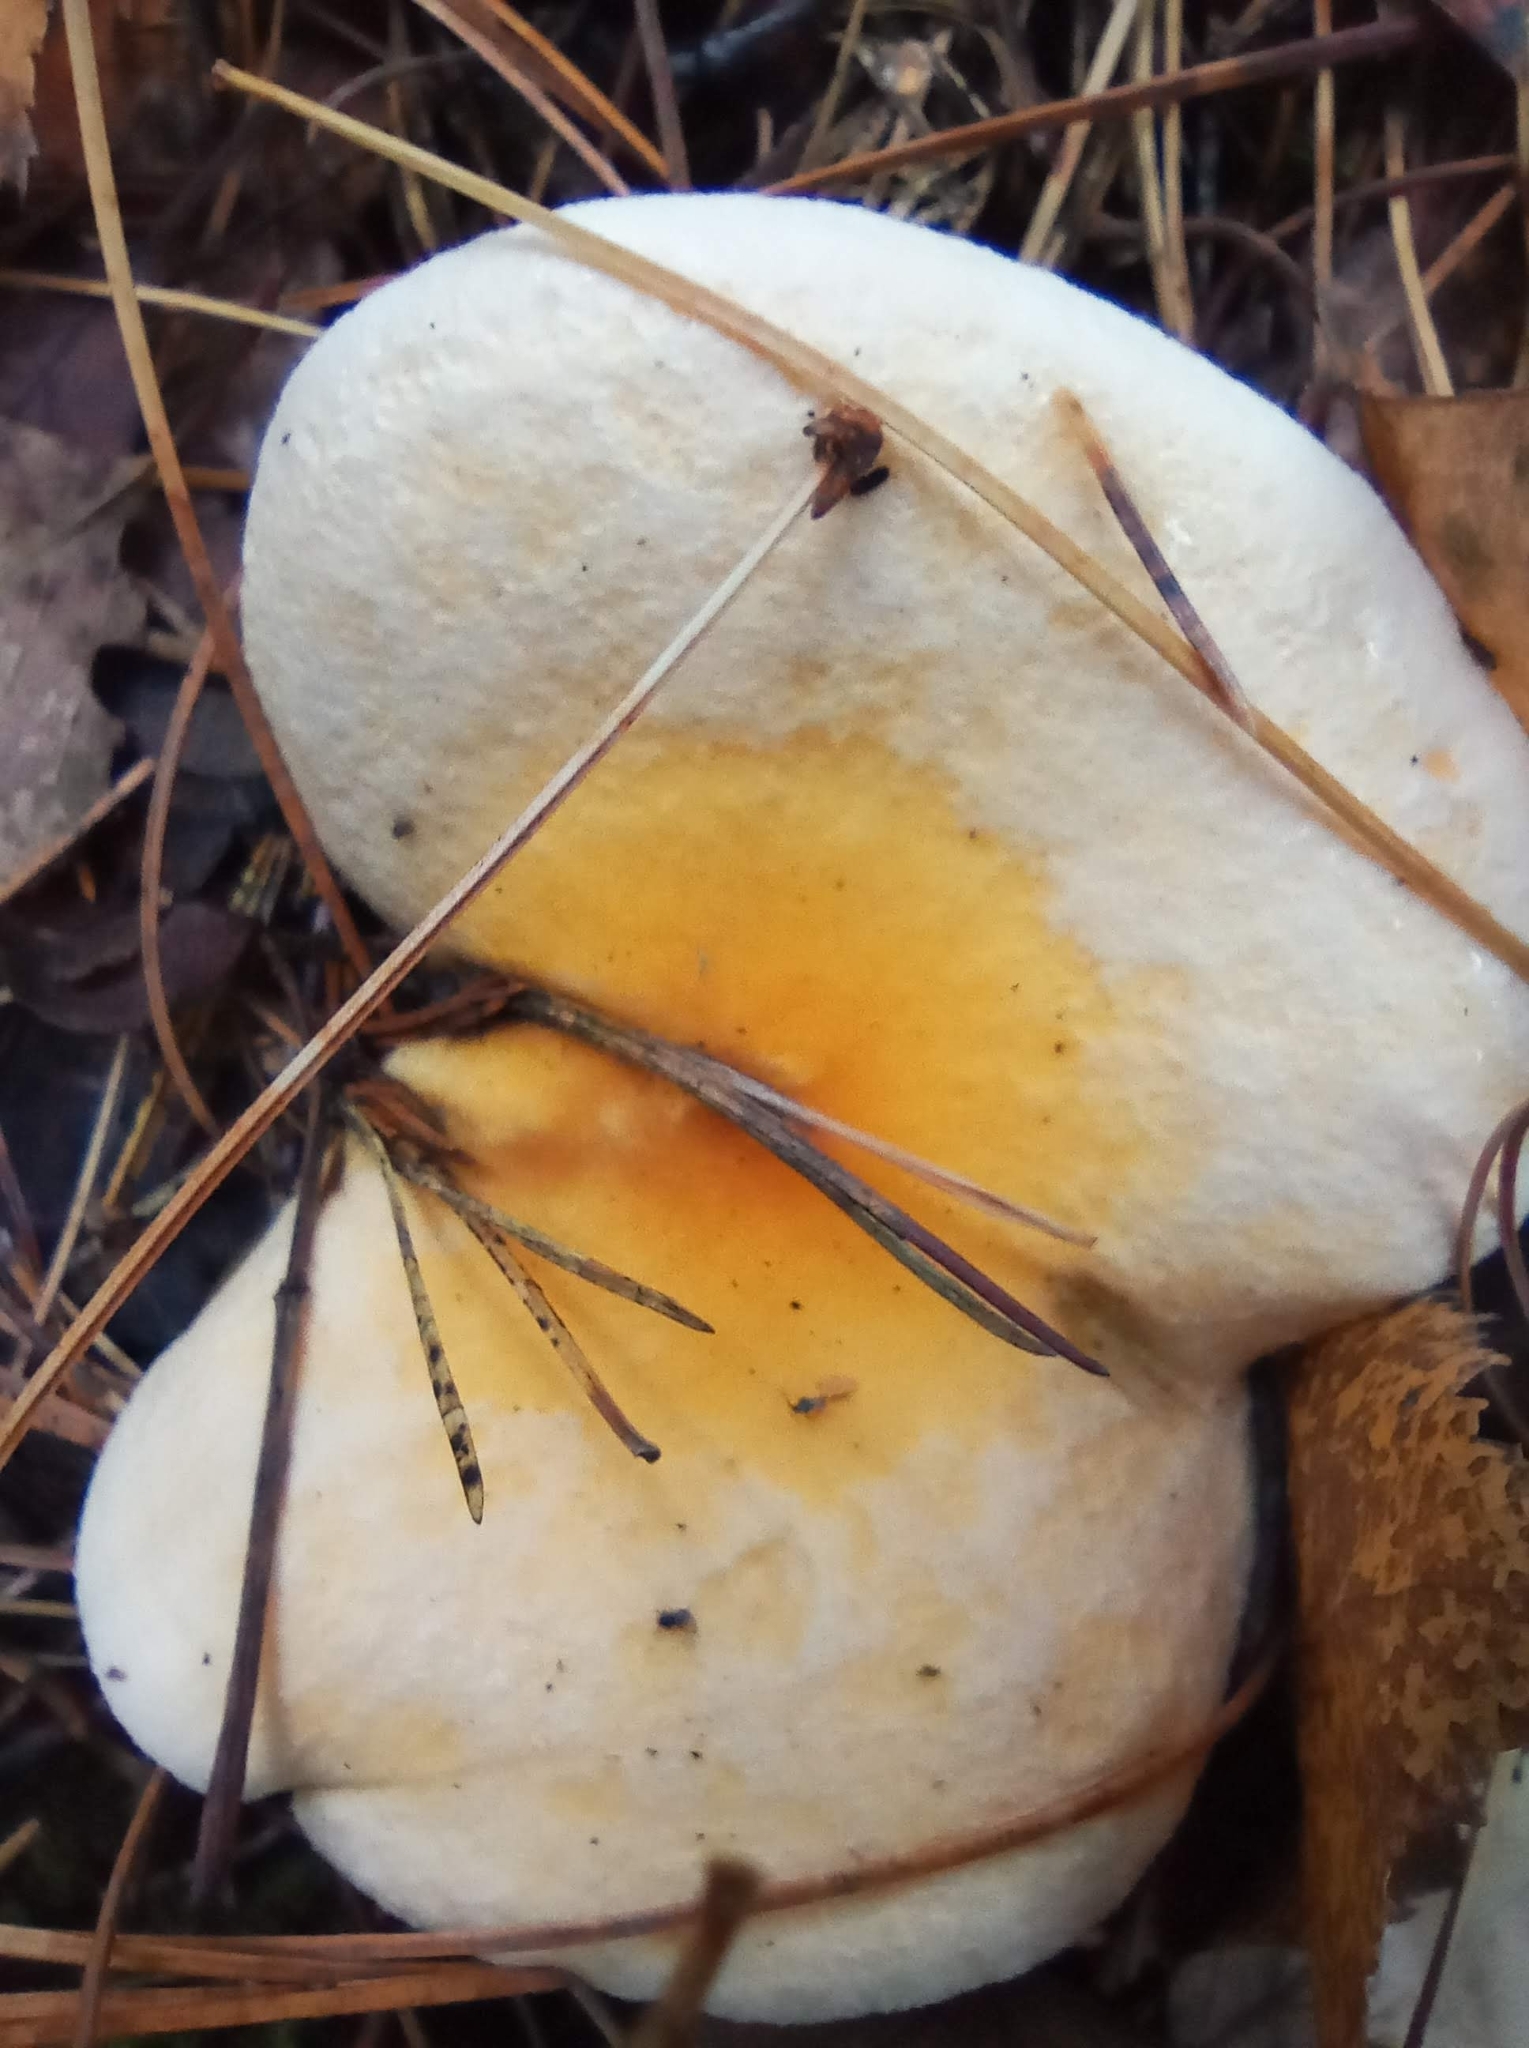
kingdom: Fungi
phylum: Basidiomycota
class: Agaricomycetes
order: Boletales
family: Hygrophoropsidaceae
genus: Hygrophoropsis
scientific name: Hygrophoropsis aurantiaca
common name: False chanterelle
